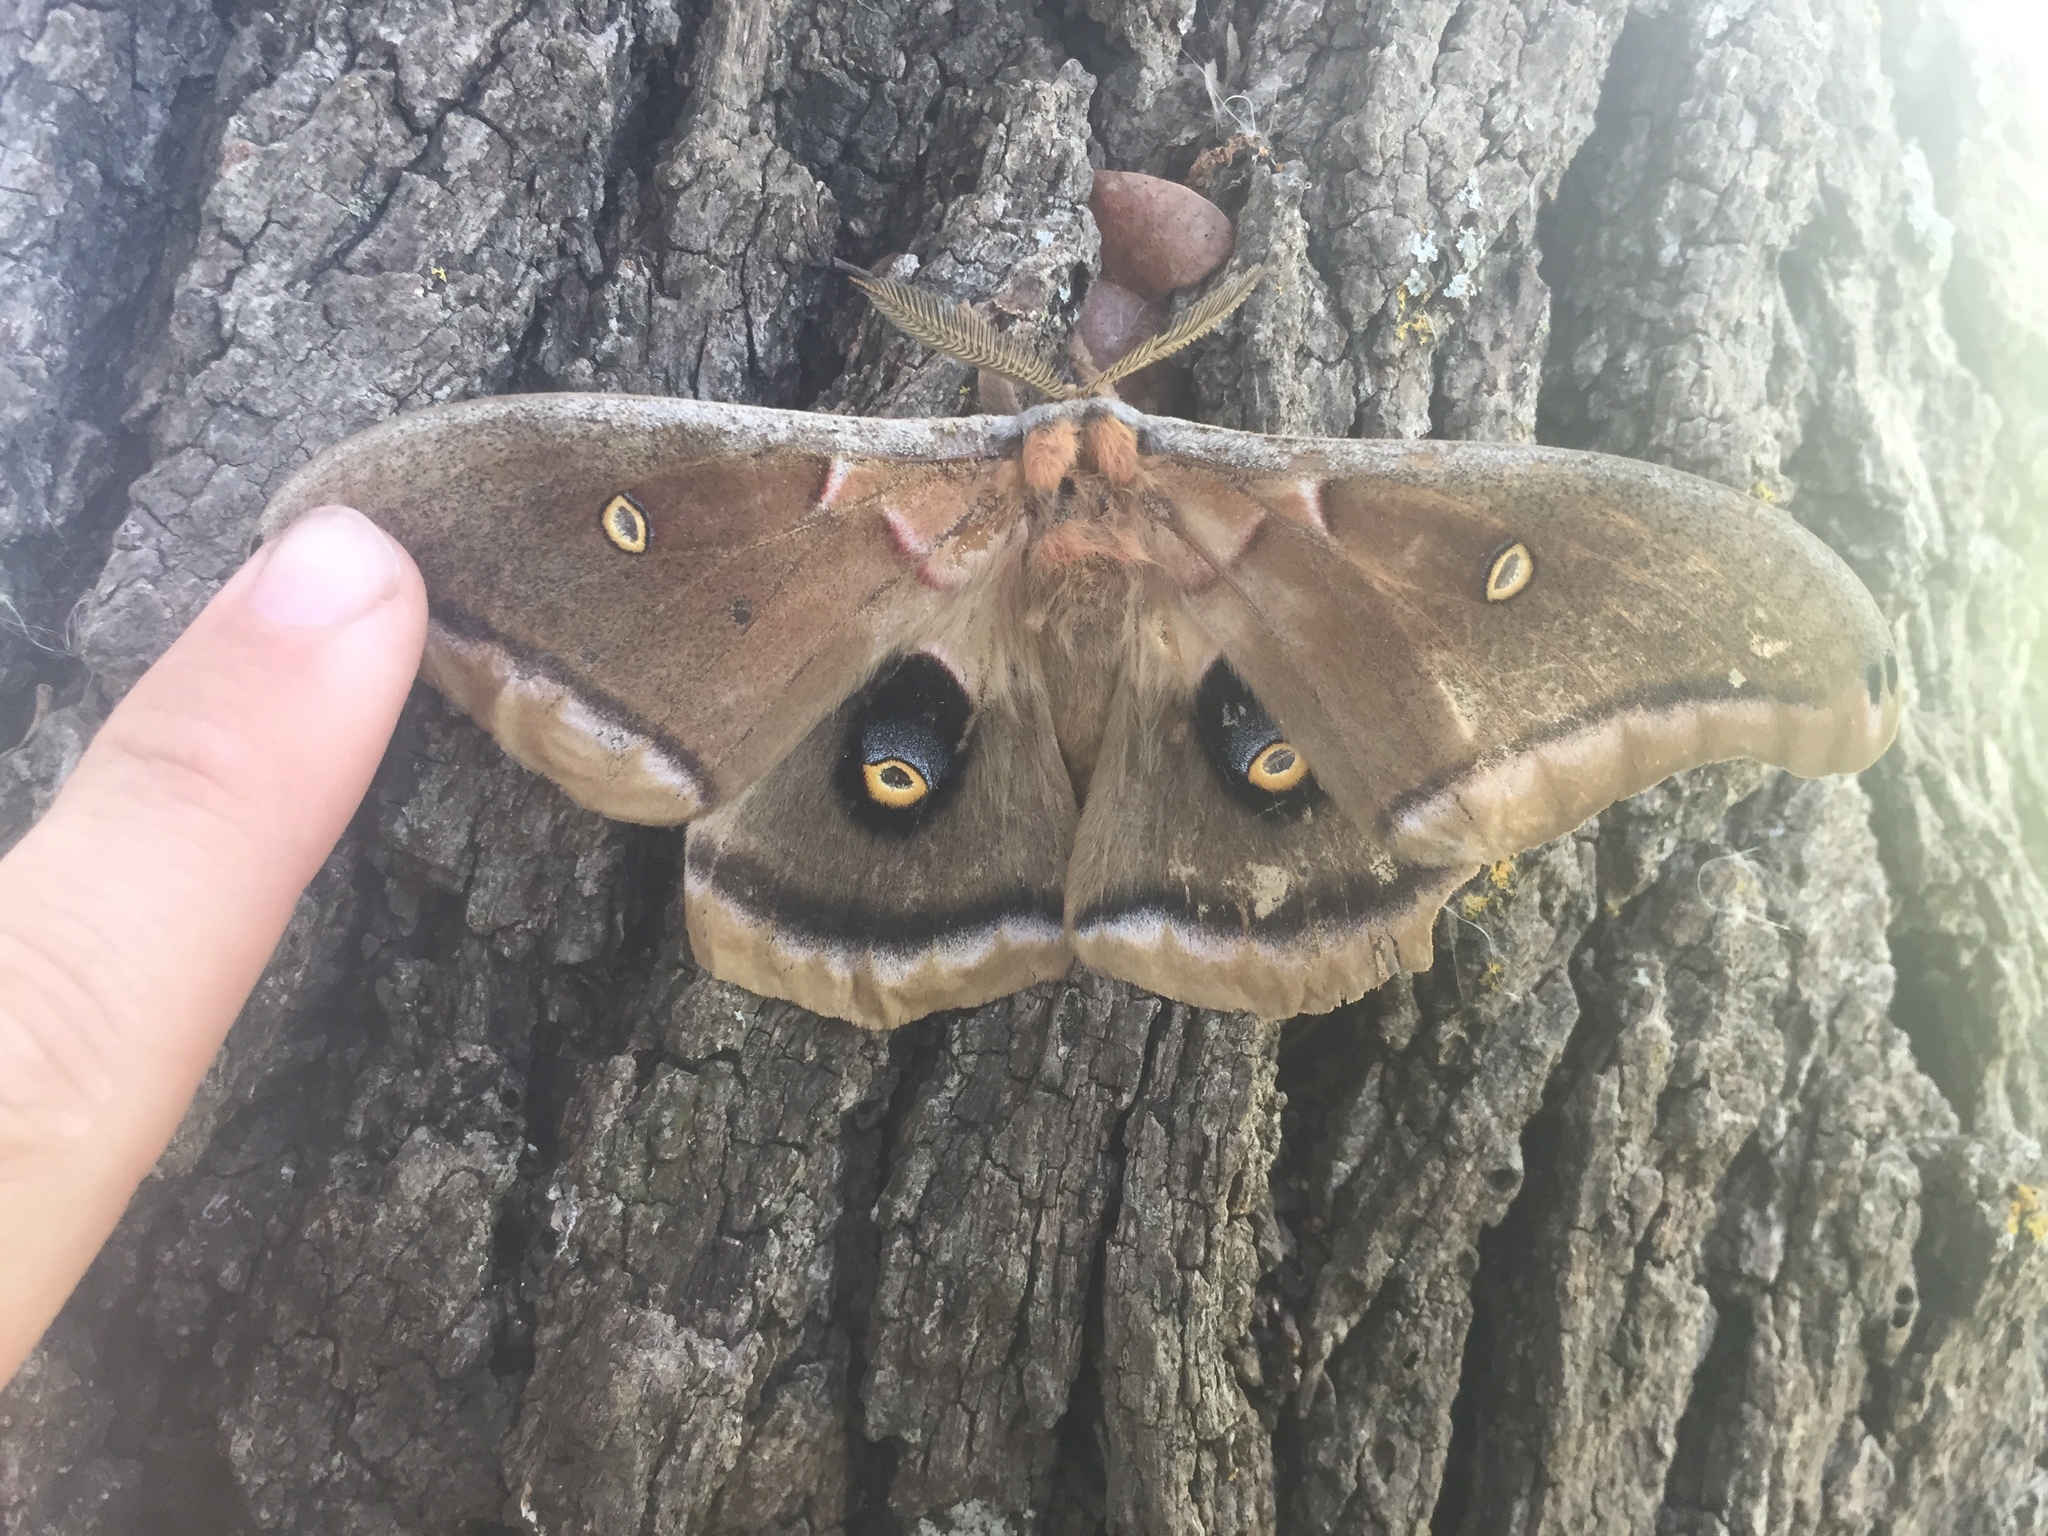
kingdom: Animalia
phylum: Arthropoda
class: Insecta
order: Lepidoptera
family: Saturniidae
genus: Antheraea
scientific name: Antheraea polyphemus
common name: Polyphemus moth
